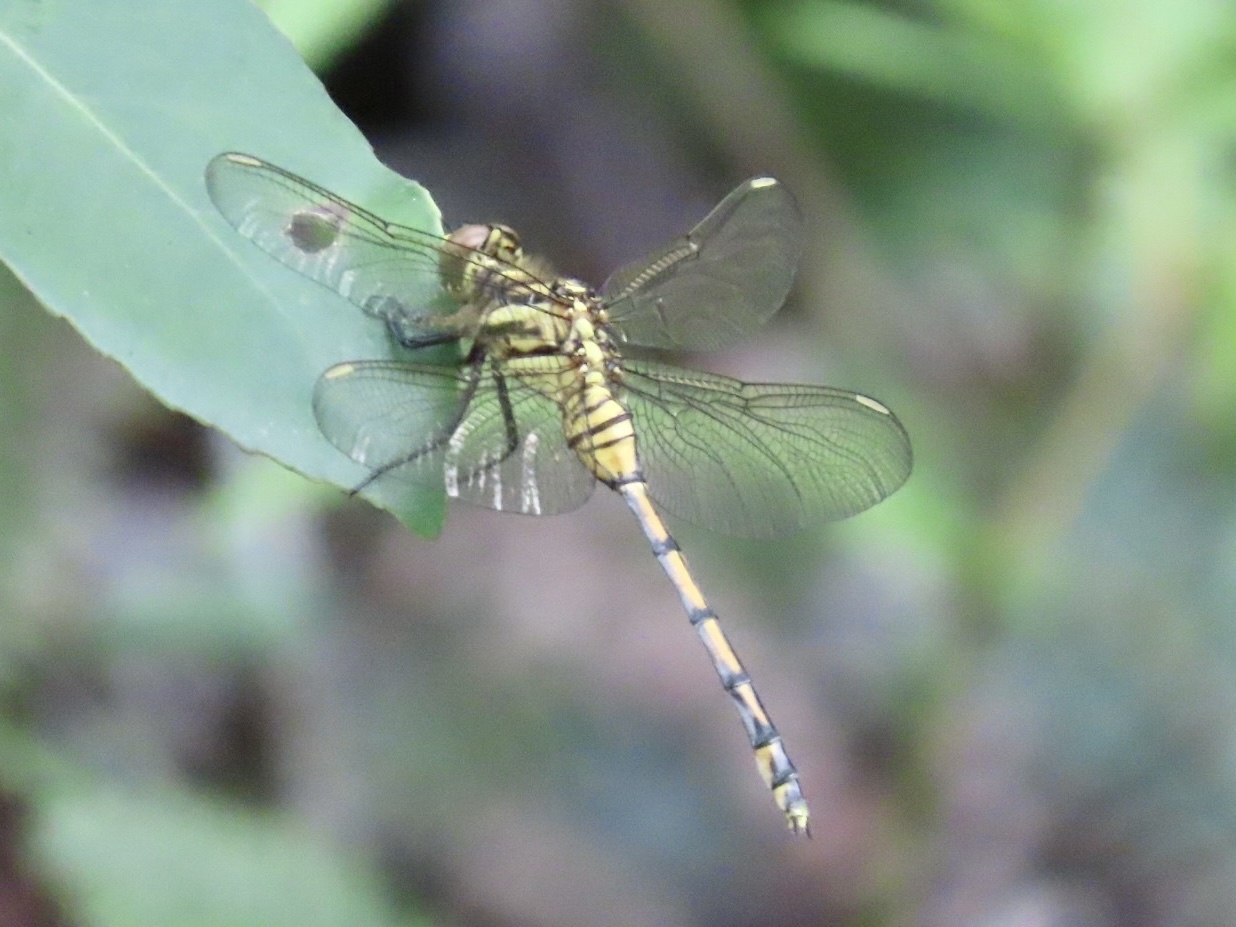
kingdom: Animalia
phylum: Arthropoda
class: Insecta
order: Odonata
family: Libellulidae
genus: Orthetrum
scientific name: Orthetrum poecilops
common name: Mangrove skimmer
